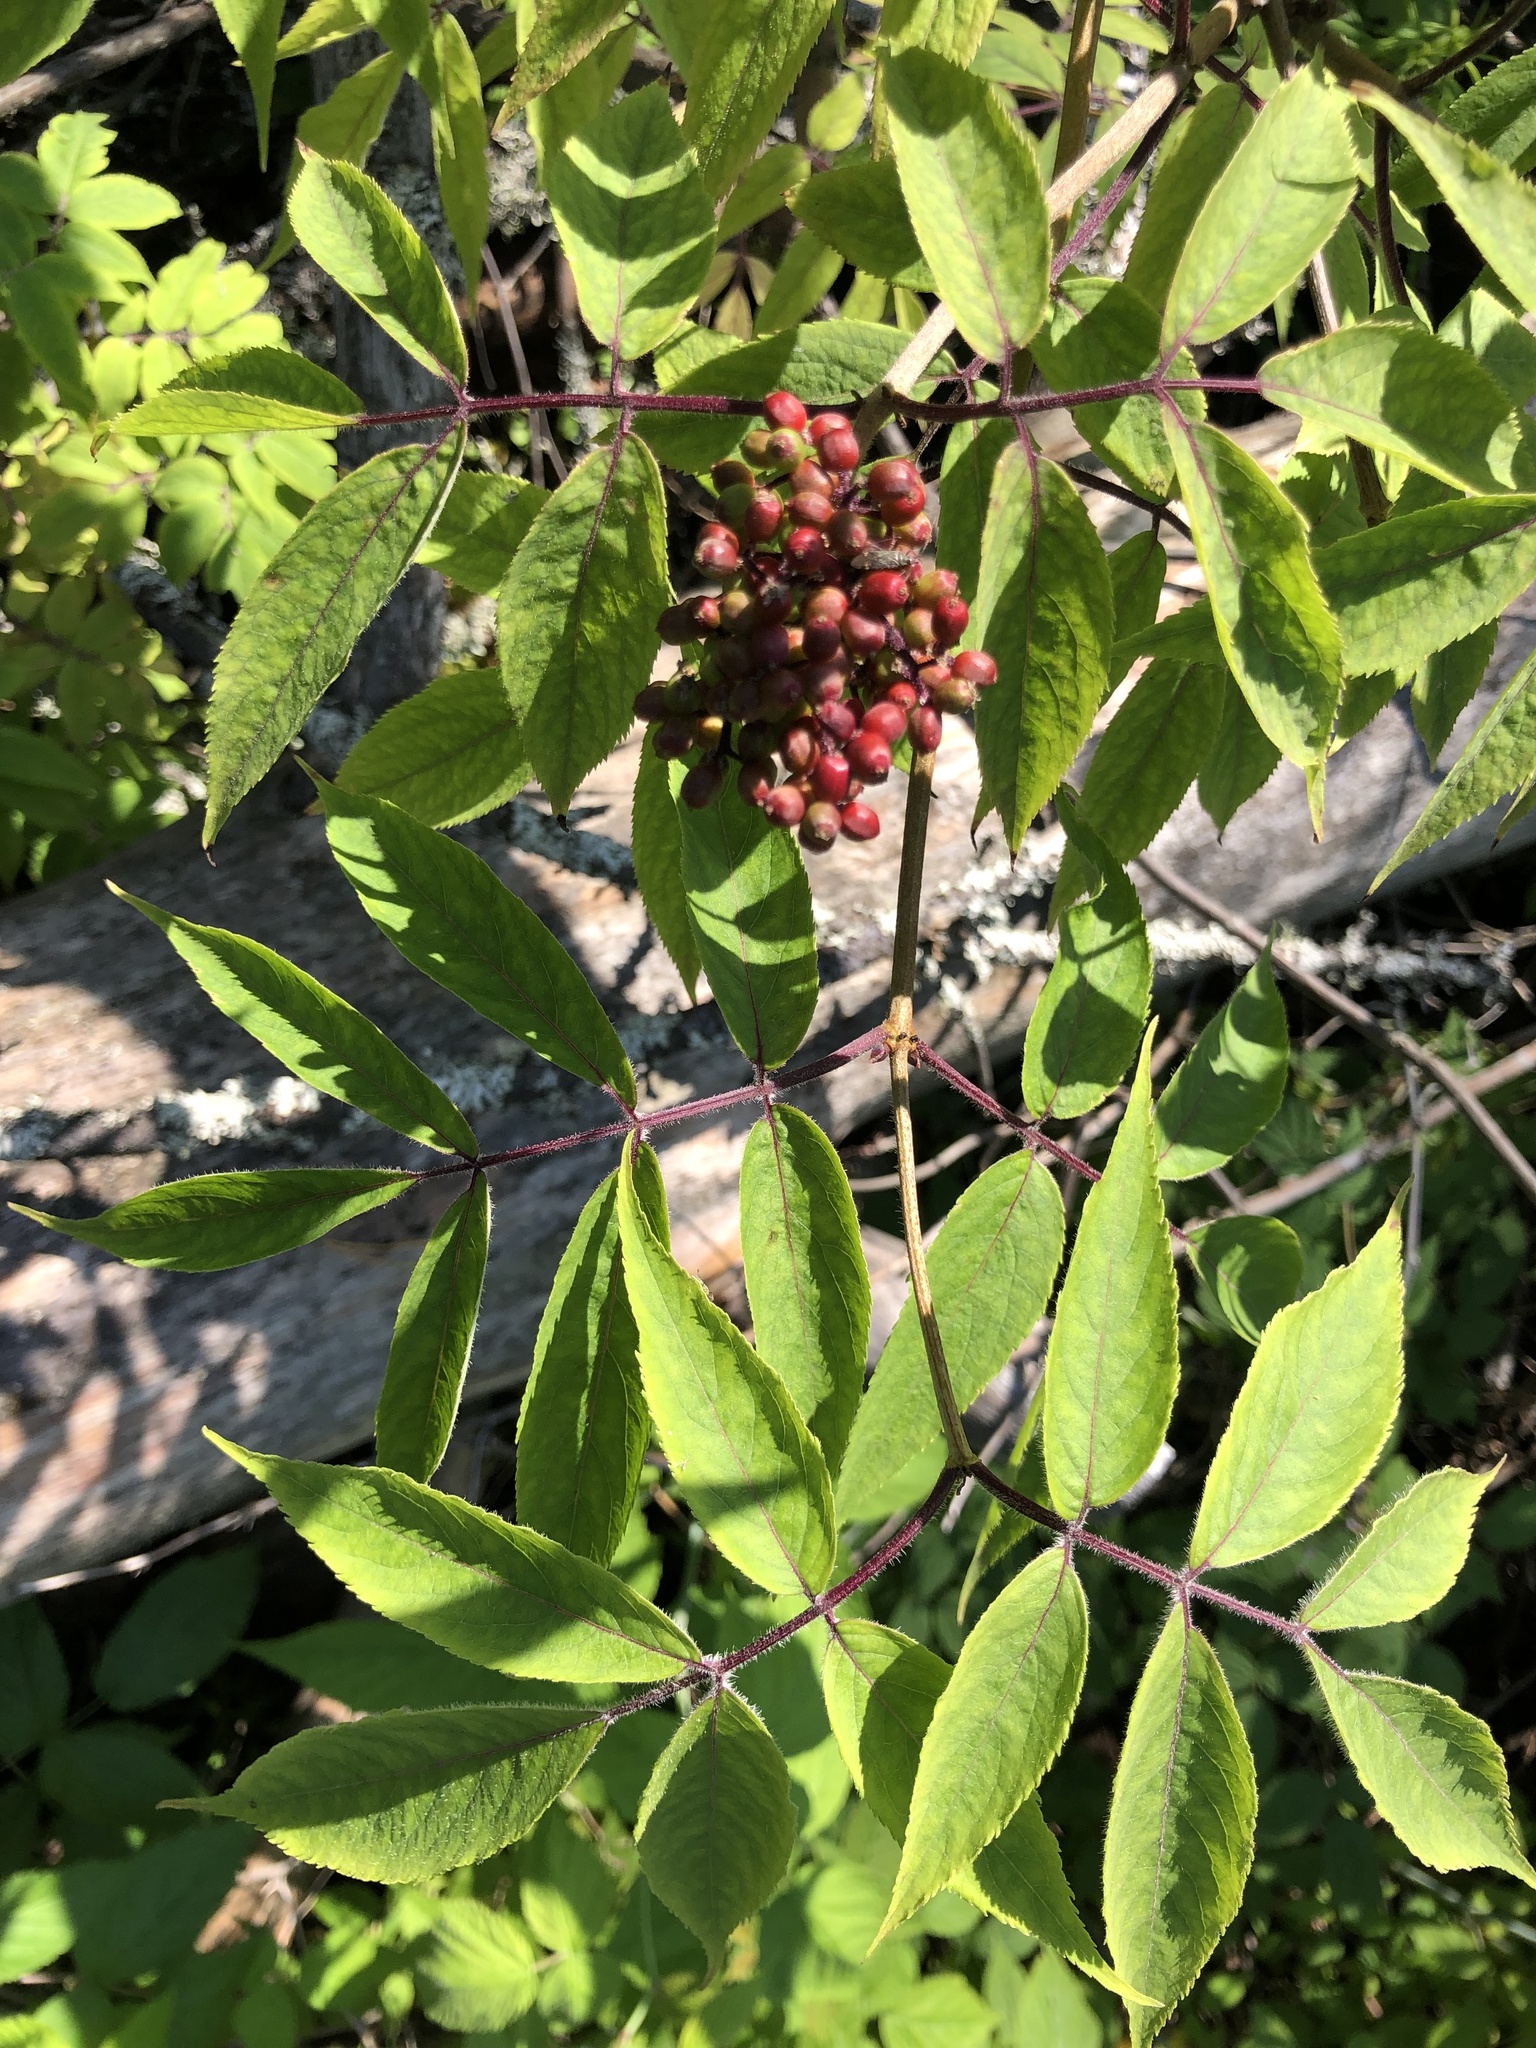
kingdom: Plantae
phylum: Tracheophyta
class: Magnoliopsida
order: Dipsacales
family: Viburnaceae
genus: Sambucus
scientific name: Sambucus sibirica
